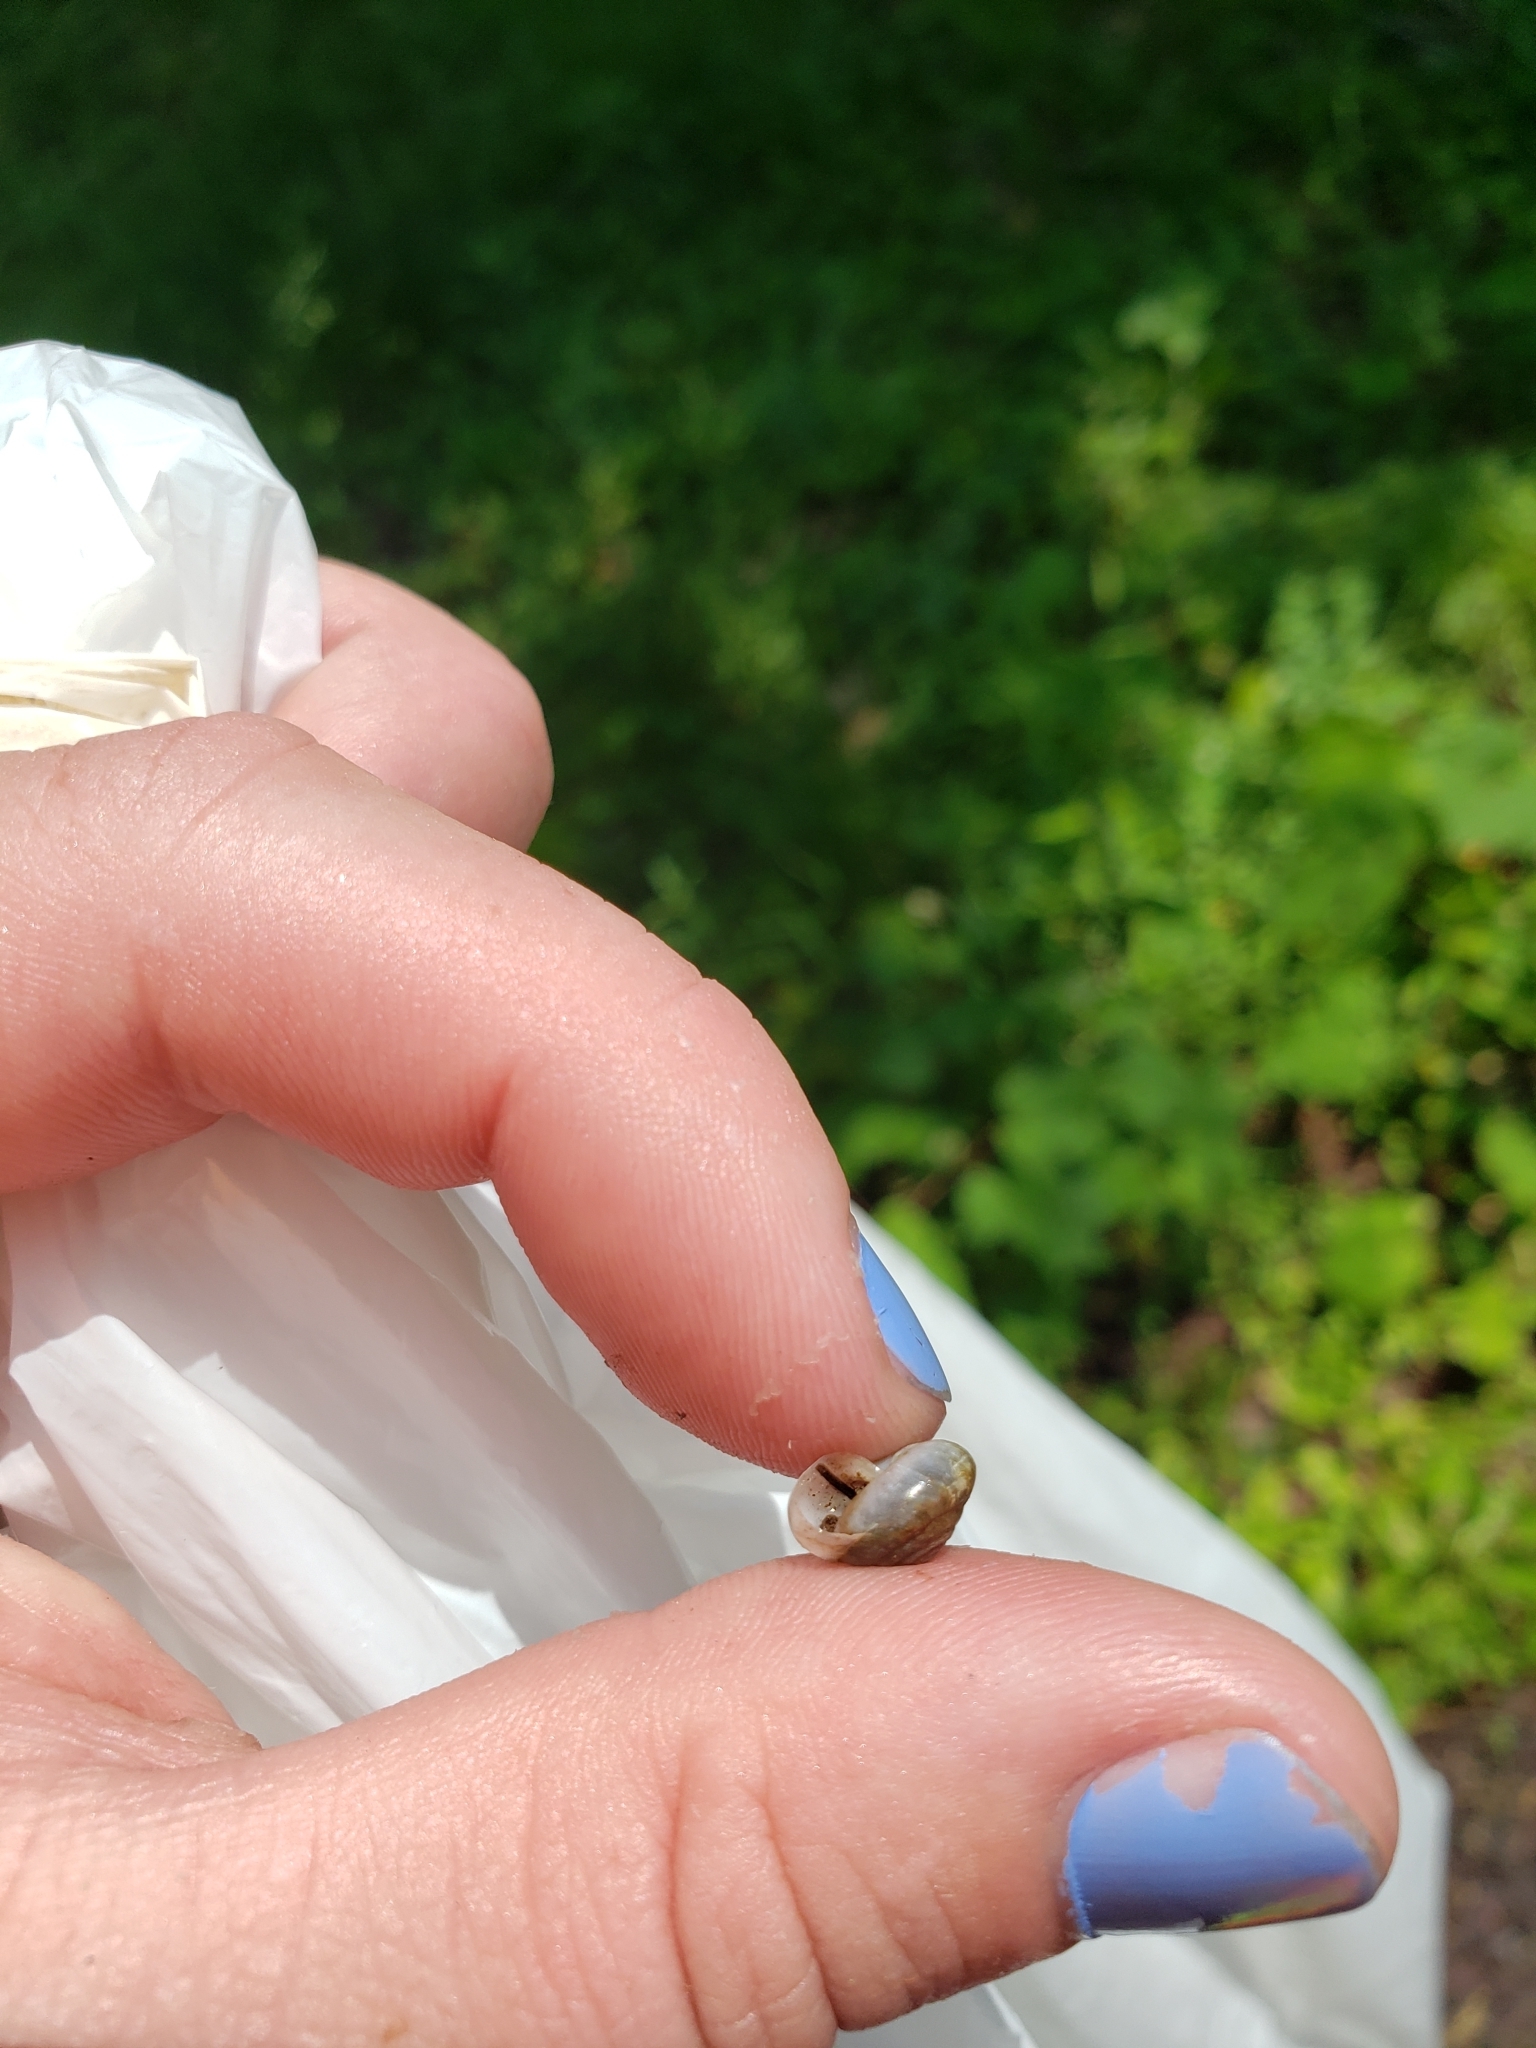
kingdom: Animalia
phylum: Mollusca
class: Gastropoda
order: Stylommatophora
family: Gastrodontidae
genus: Ventridens
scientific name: Ventridens ligera
